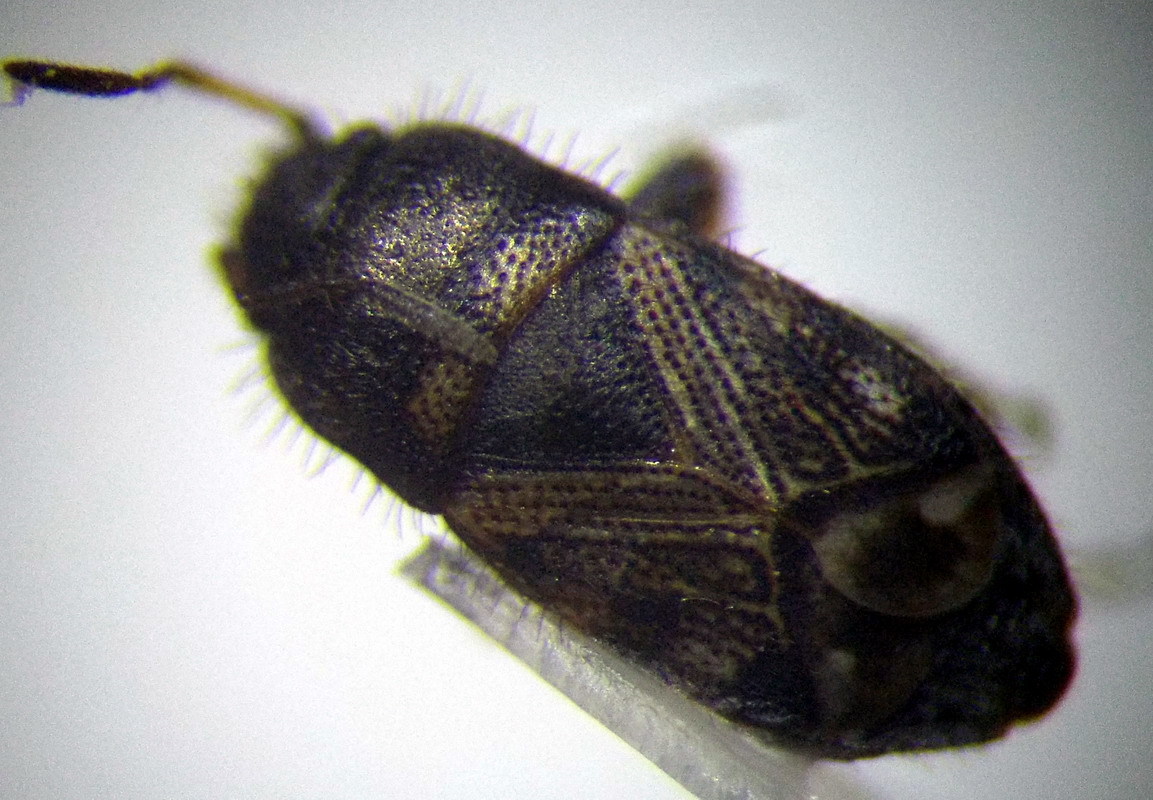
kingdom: Animalia
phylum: Arthropoda
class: Insecta
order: Hemiptera
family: Rhyparochromidae
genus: Pionosomus
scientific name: Pionosomus opacellus
